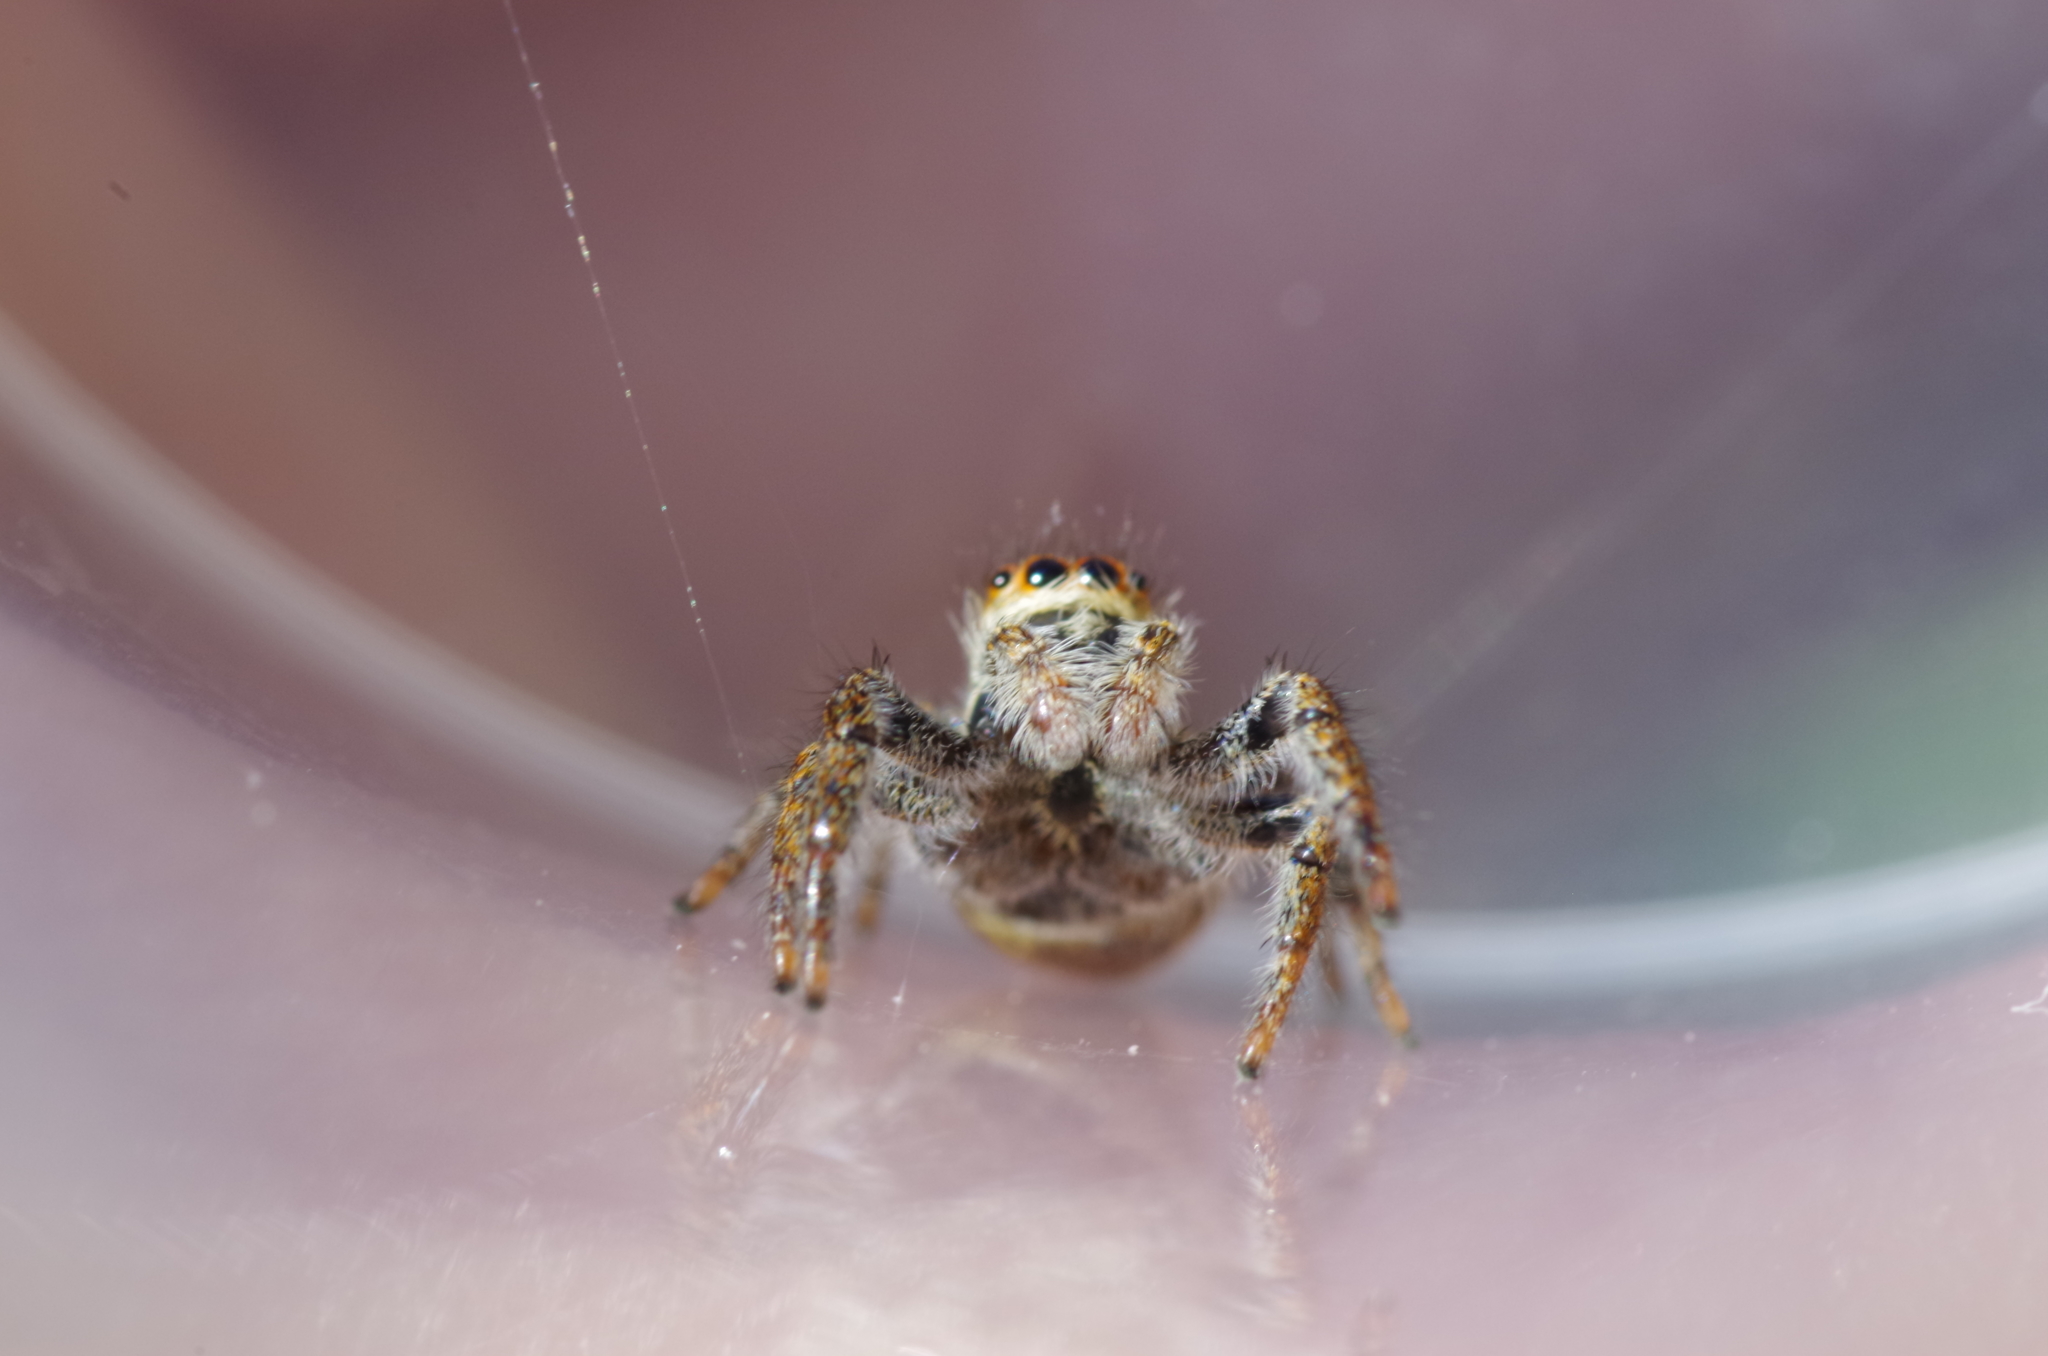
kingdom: Animalia
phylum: Arthropoda
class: Arachnida
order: Araneae
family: Salticidae
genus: Carrhotus
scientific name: Carrhotus xanthogramma
